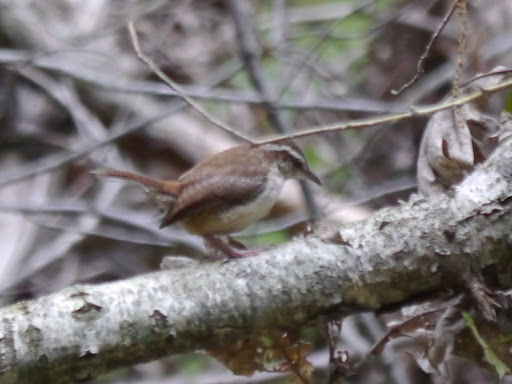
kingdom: Animalia
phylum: Chordata
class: Aves
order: Passeriformes
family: Troglodytidae
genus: Thryothorus
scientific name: Thryothorus ludovicianus
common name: Carolina wren
